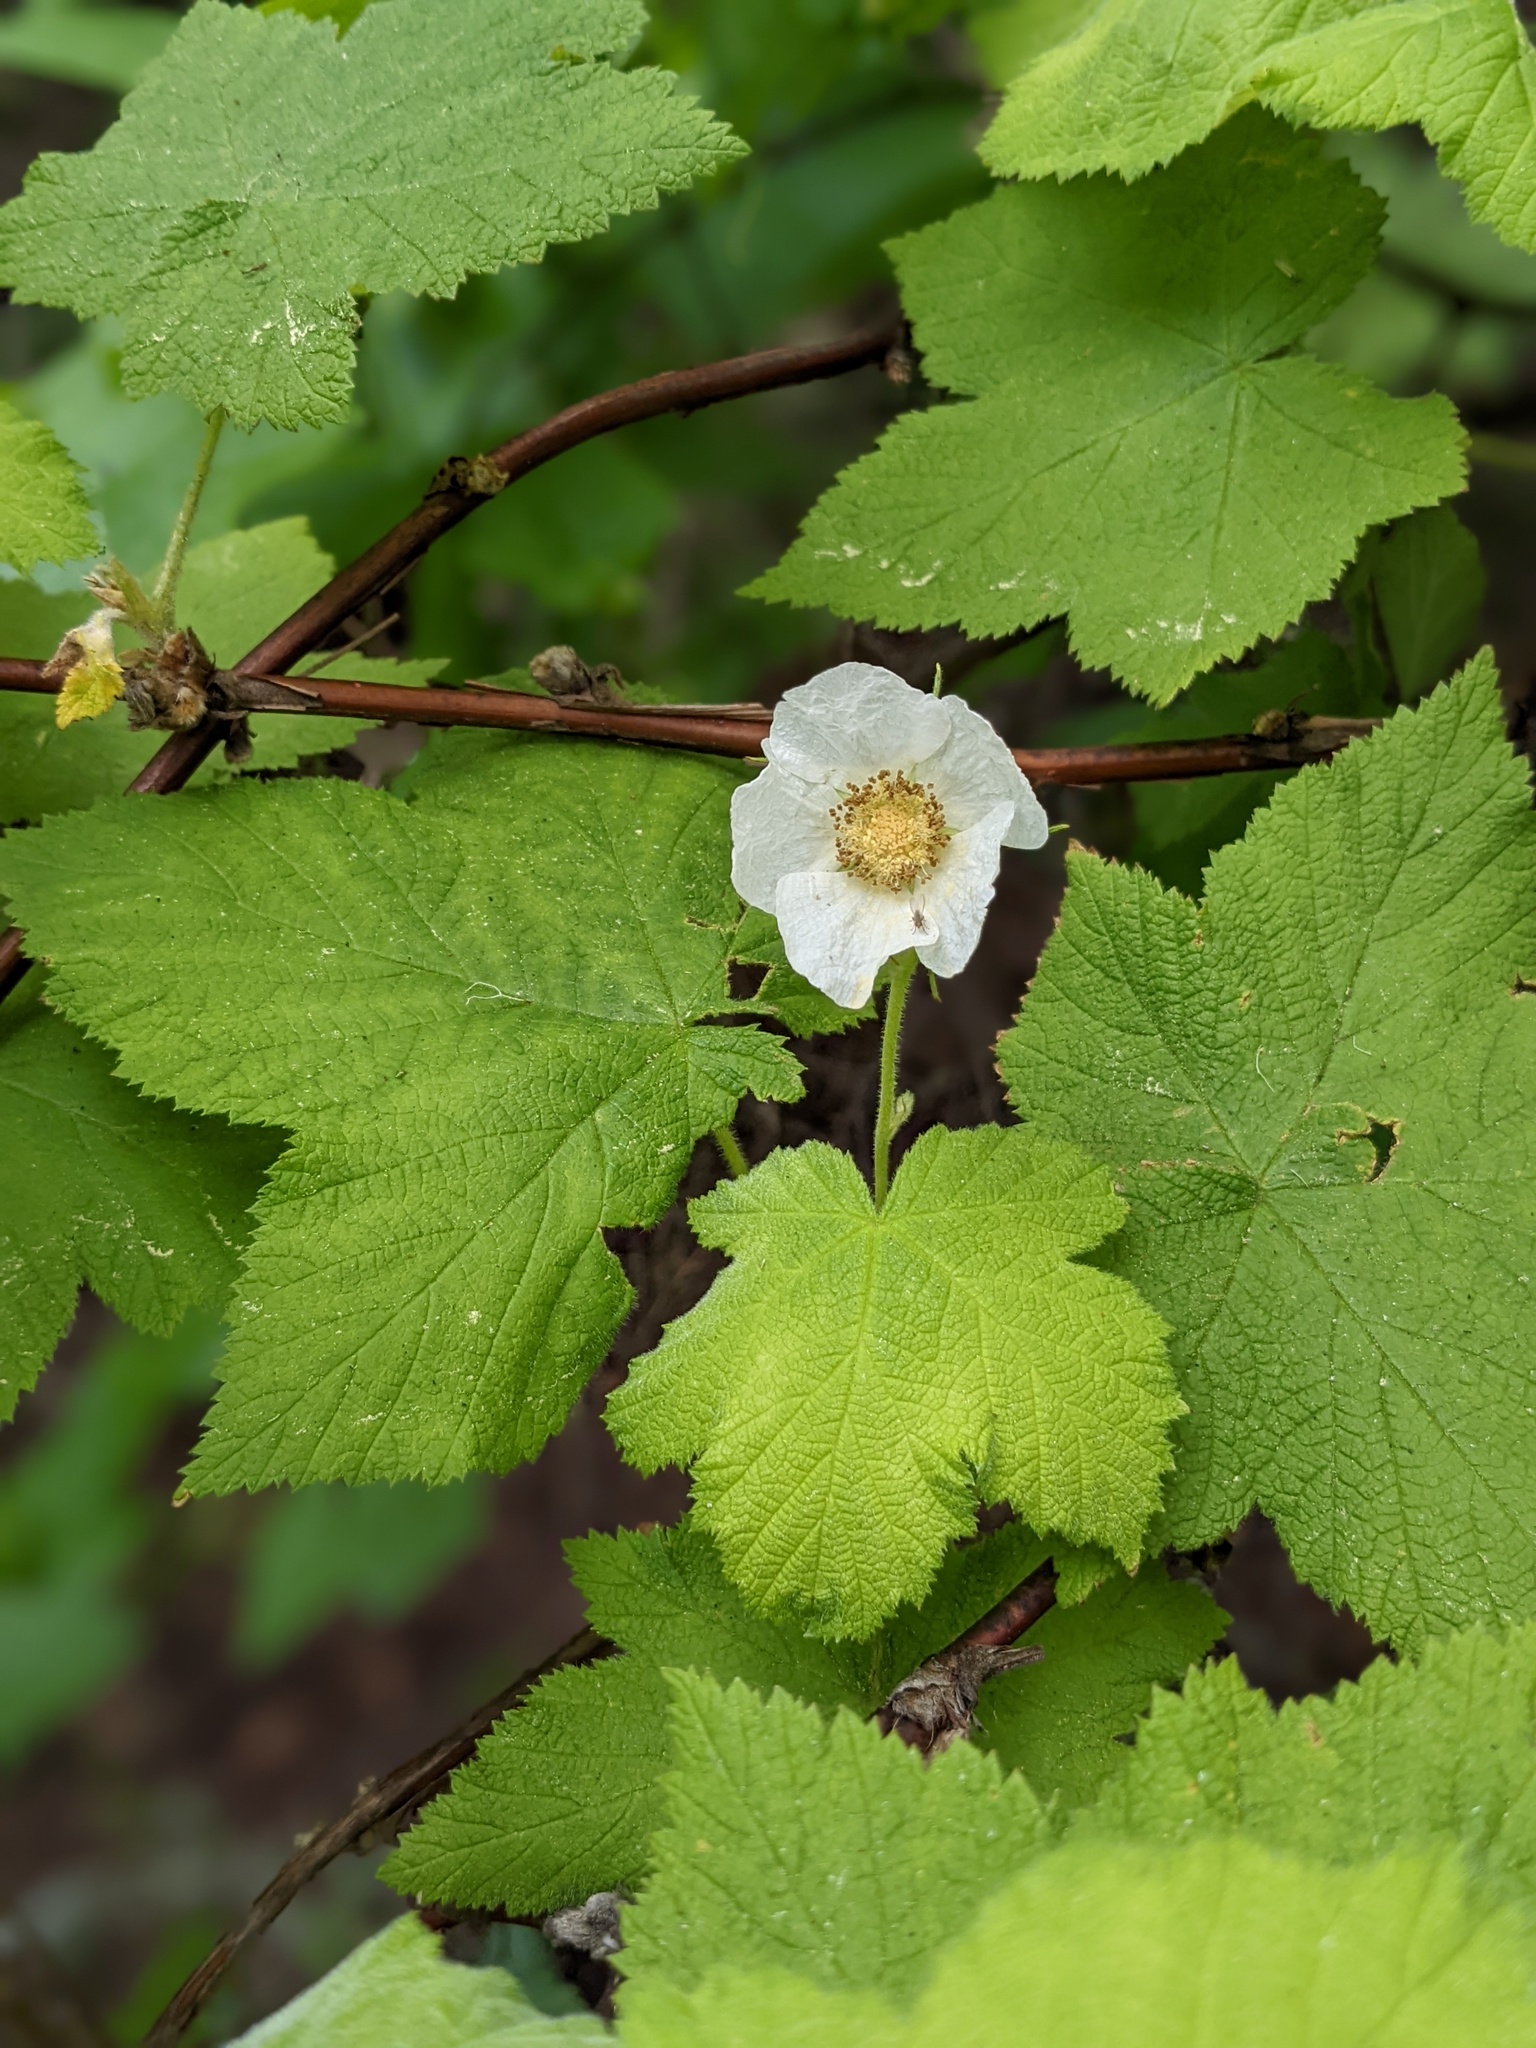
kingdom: Plantae
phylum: Tracheophyta
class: Magnoliopsida
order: Rosales
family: Rosaceae
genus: Rubus
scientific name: Rubus parviflorus
